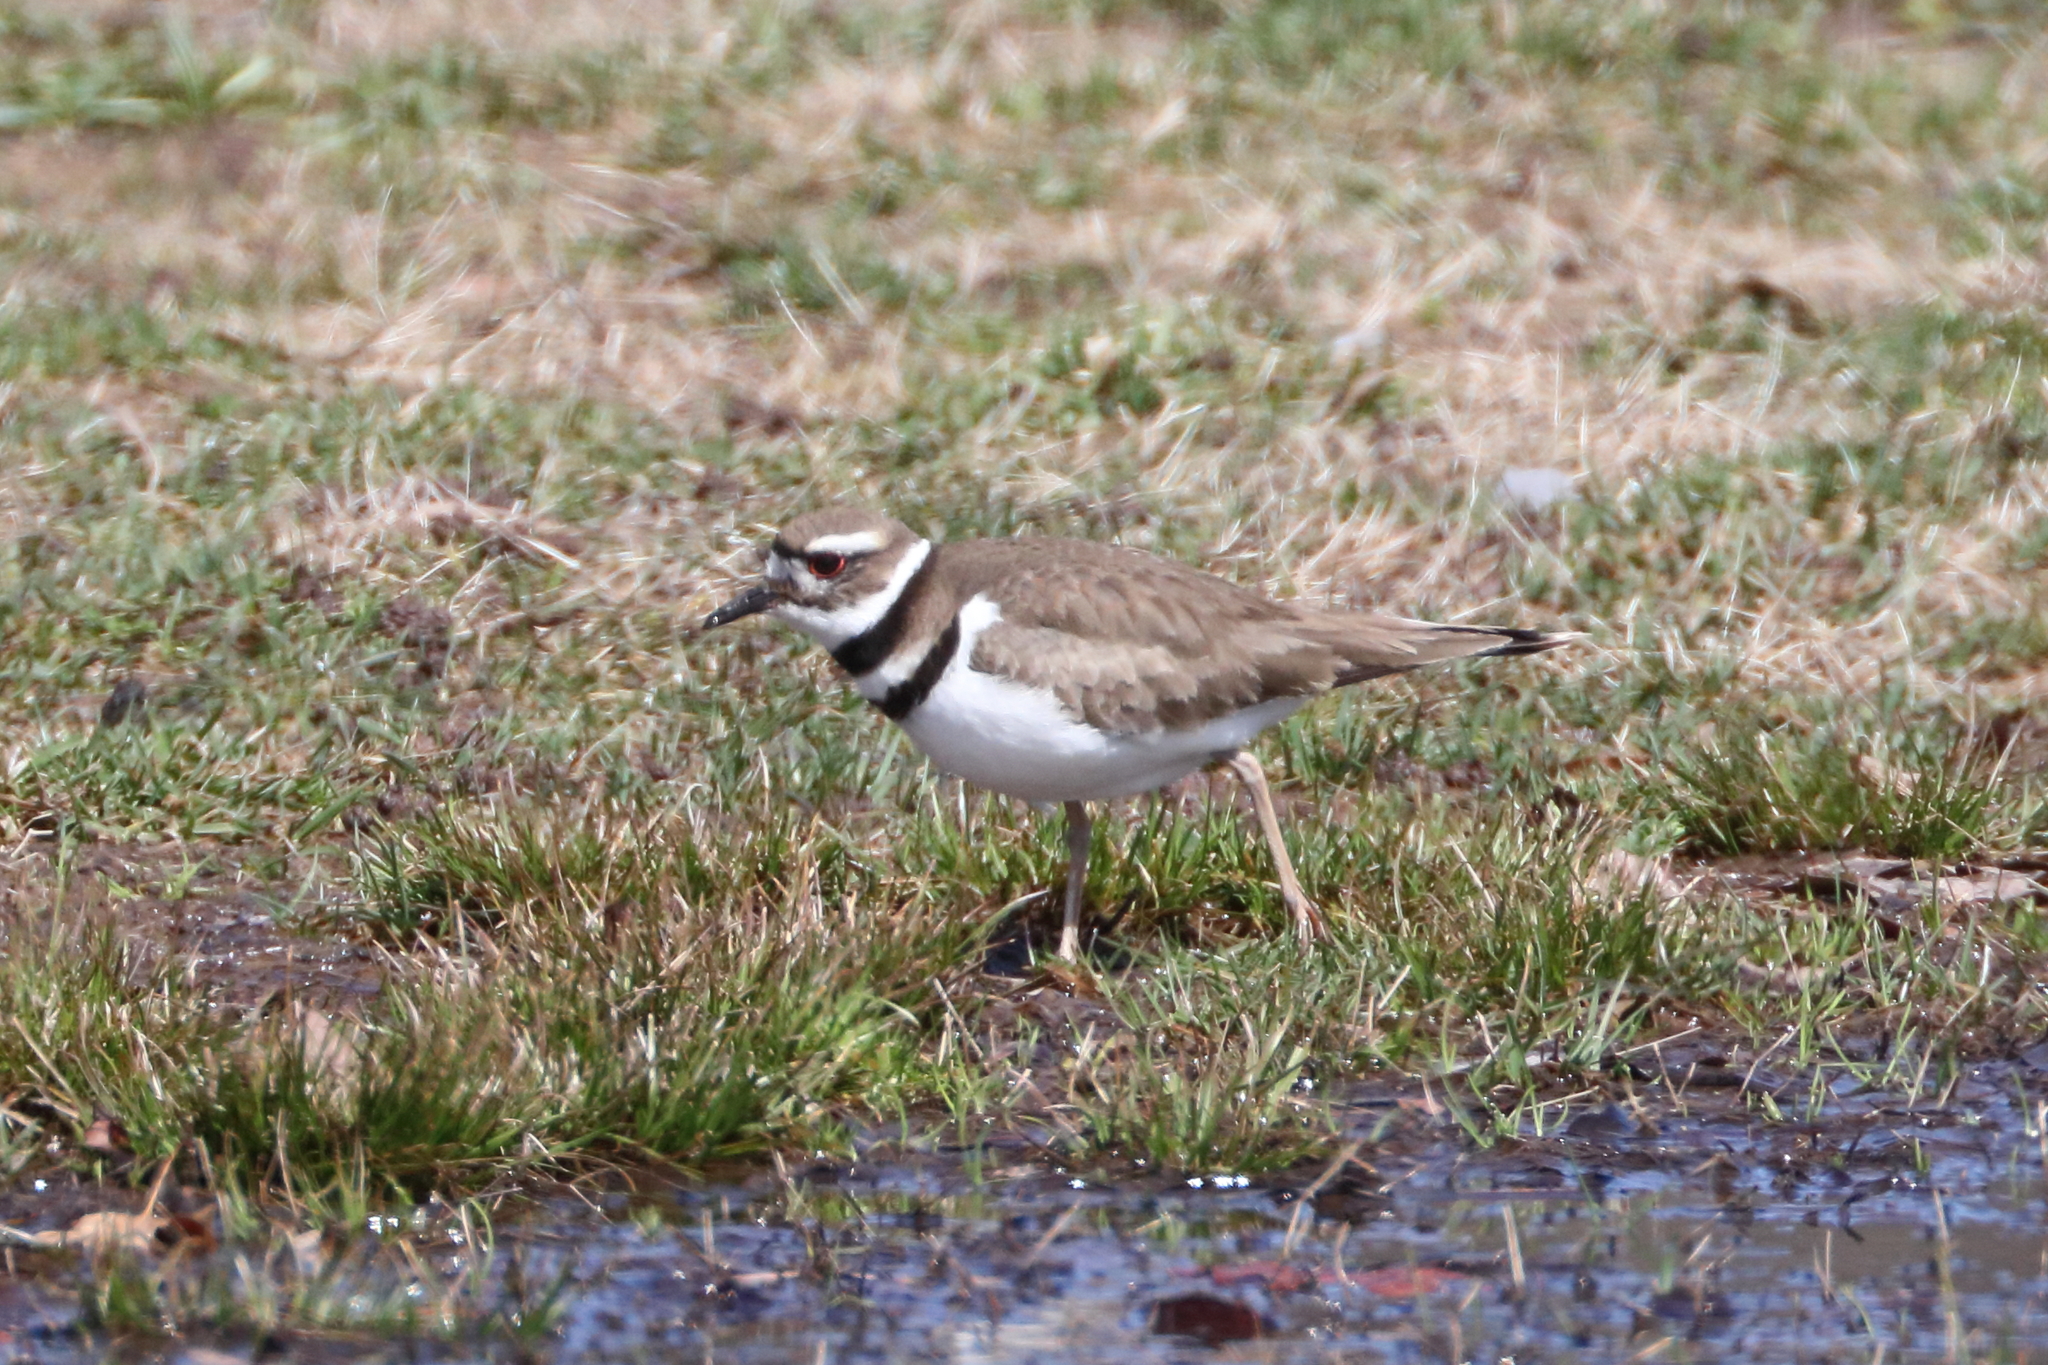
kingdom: Animalia
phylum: Chordata
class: Aves
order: Charadriiformes
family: Charadriidae
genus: Charadrius
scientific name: Charadrius vociferus
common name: Killdeer
